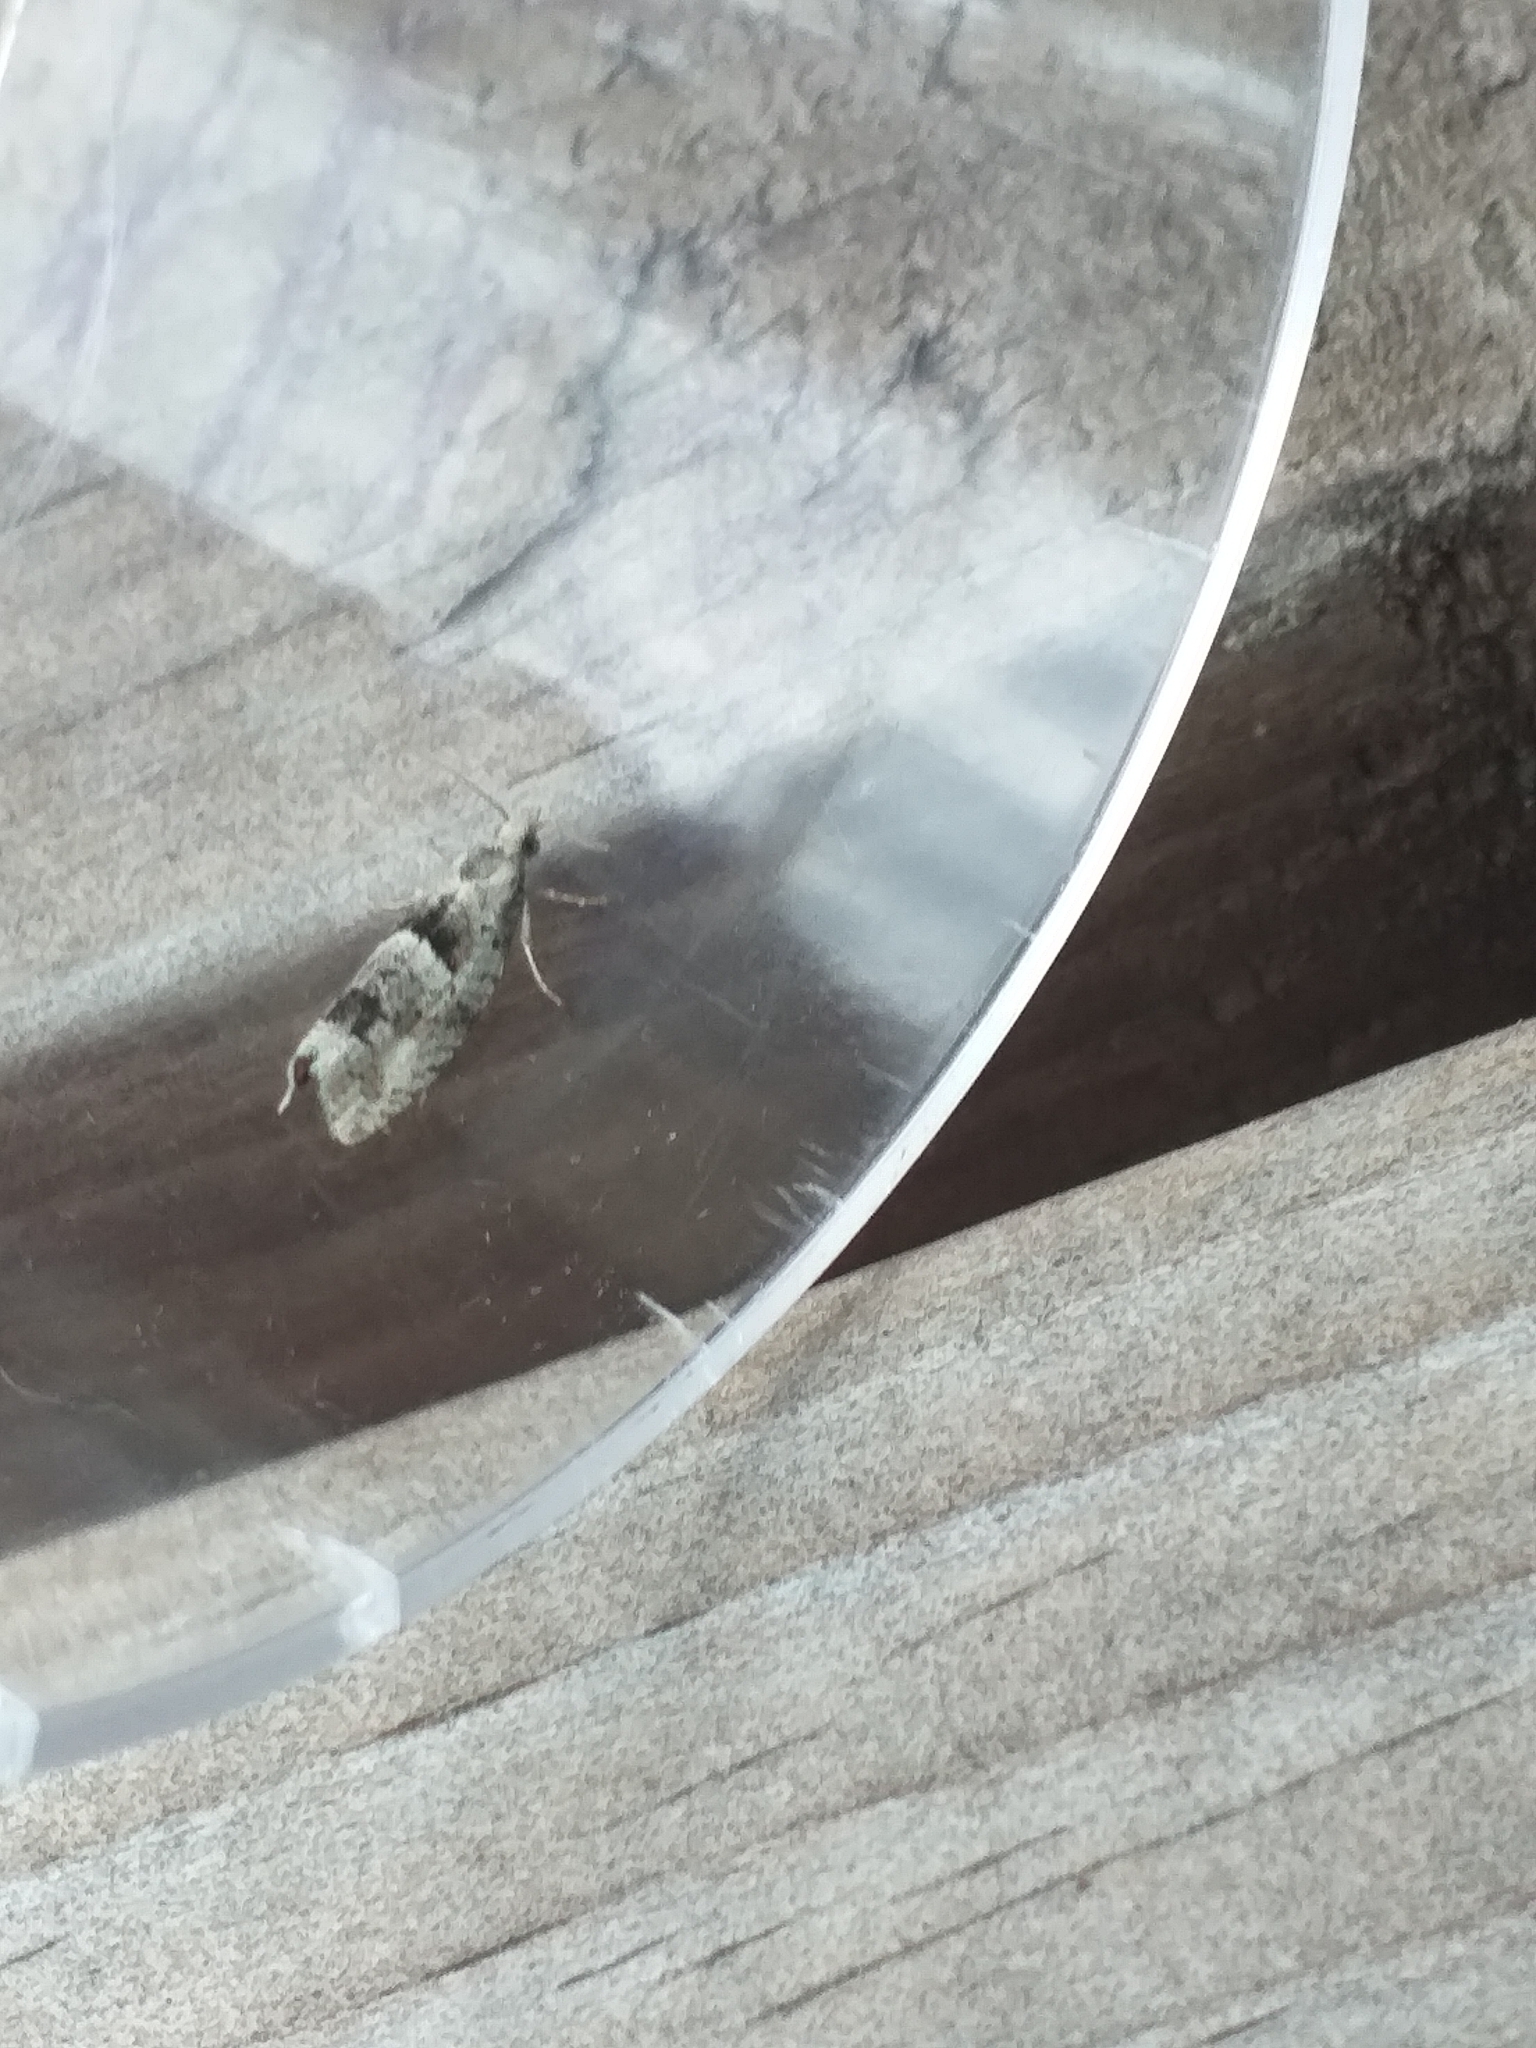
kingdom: Animalia
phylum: Arthropoda
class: Insecta
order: Lepidoptera
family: Tortricidae
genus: Epinotia
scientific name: Epinotia bilunana
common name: Crescent bell
